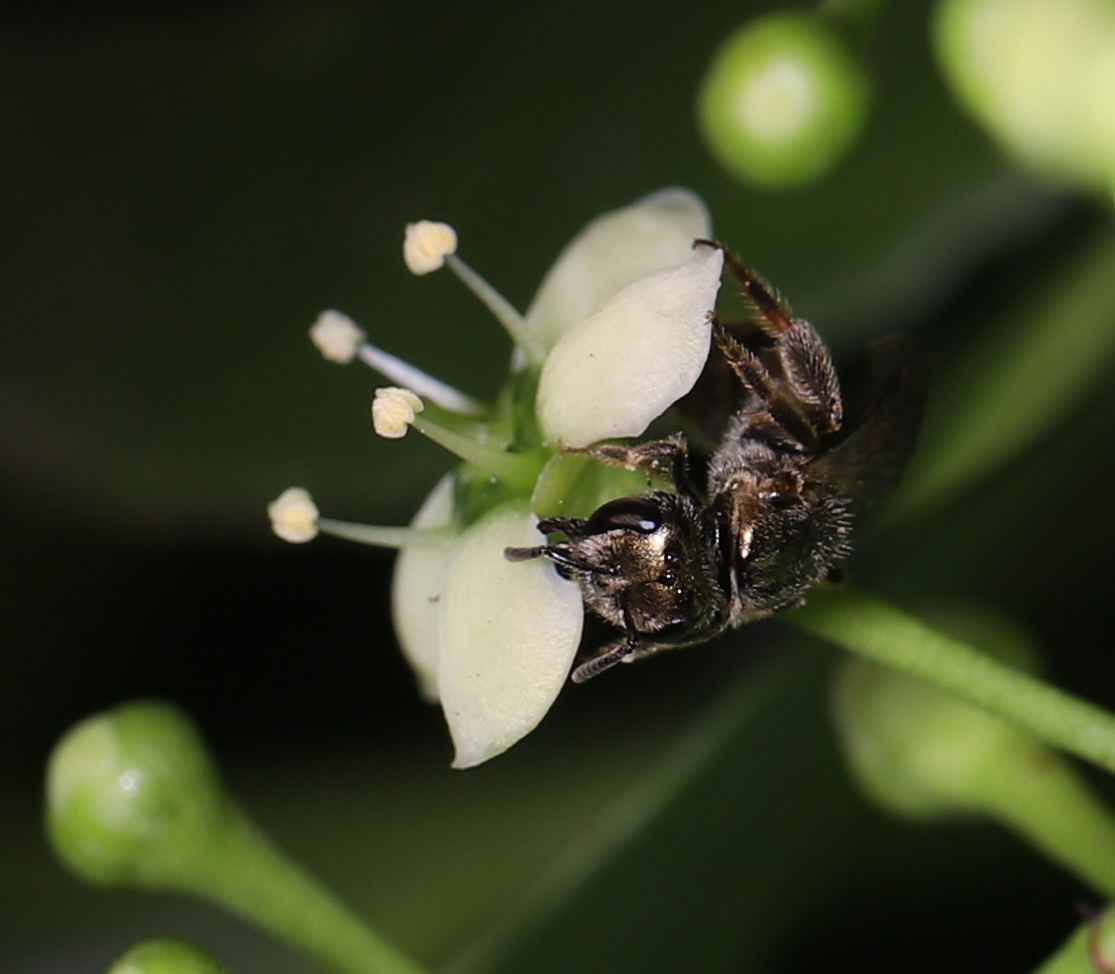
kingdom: Animalia
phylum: Arthropoda
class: Insecta
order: Hymenoptera
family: Halictidae
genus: Dialictus
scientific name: Dialictus
